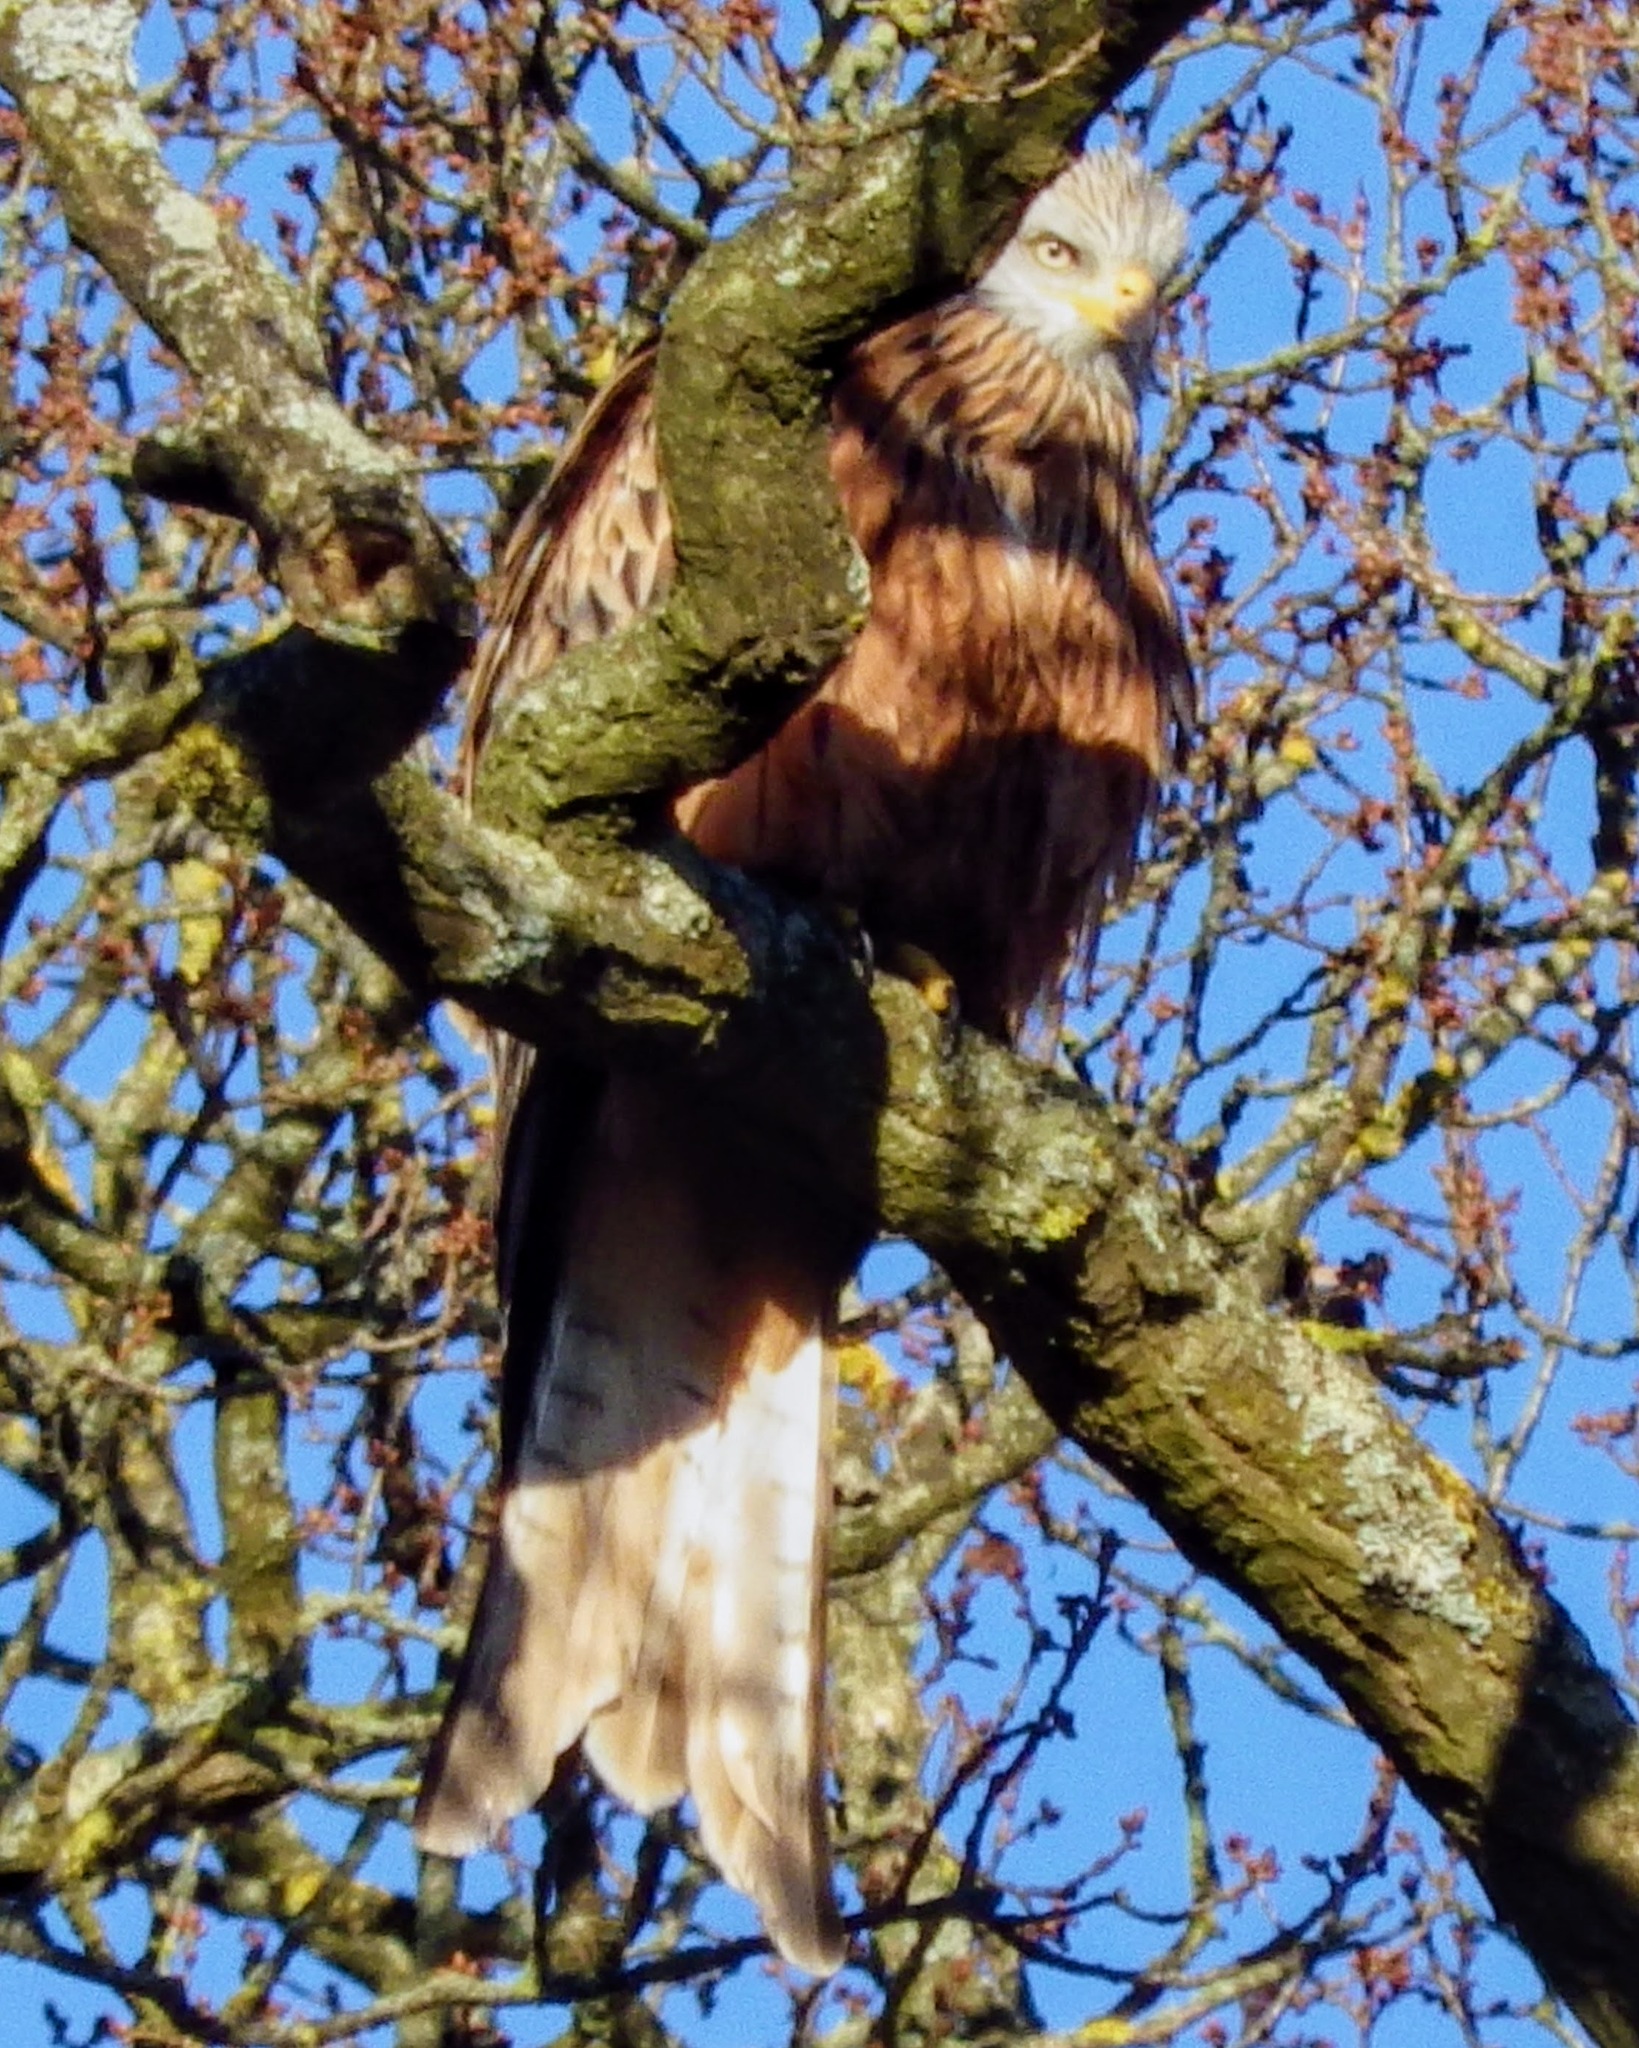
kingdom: Animalia
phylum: Chordata
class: Aves
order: Accipitriformes
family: Accipitridae
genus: Milvus
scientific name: Milvus milvus
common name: Red kite
